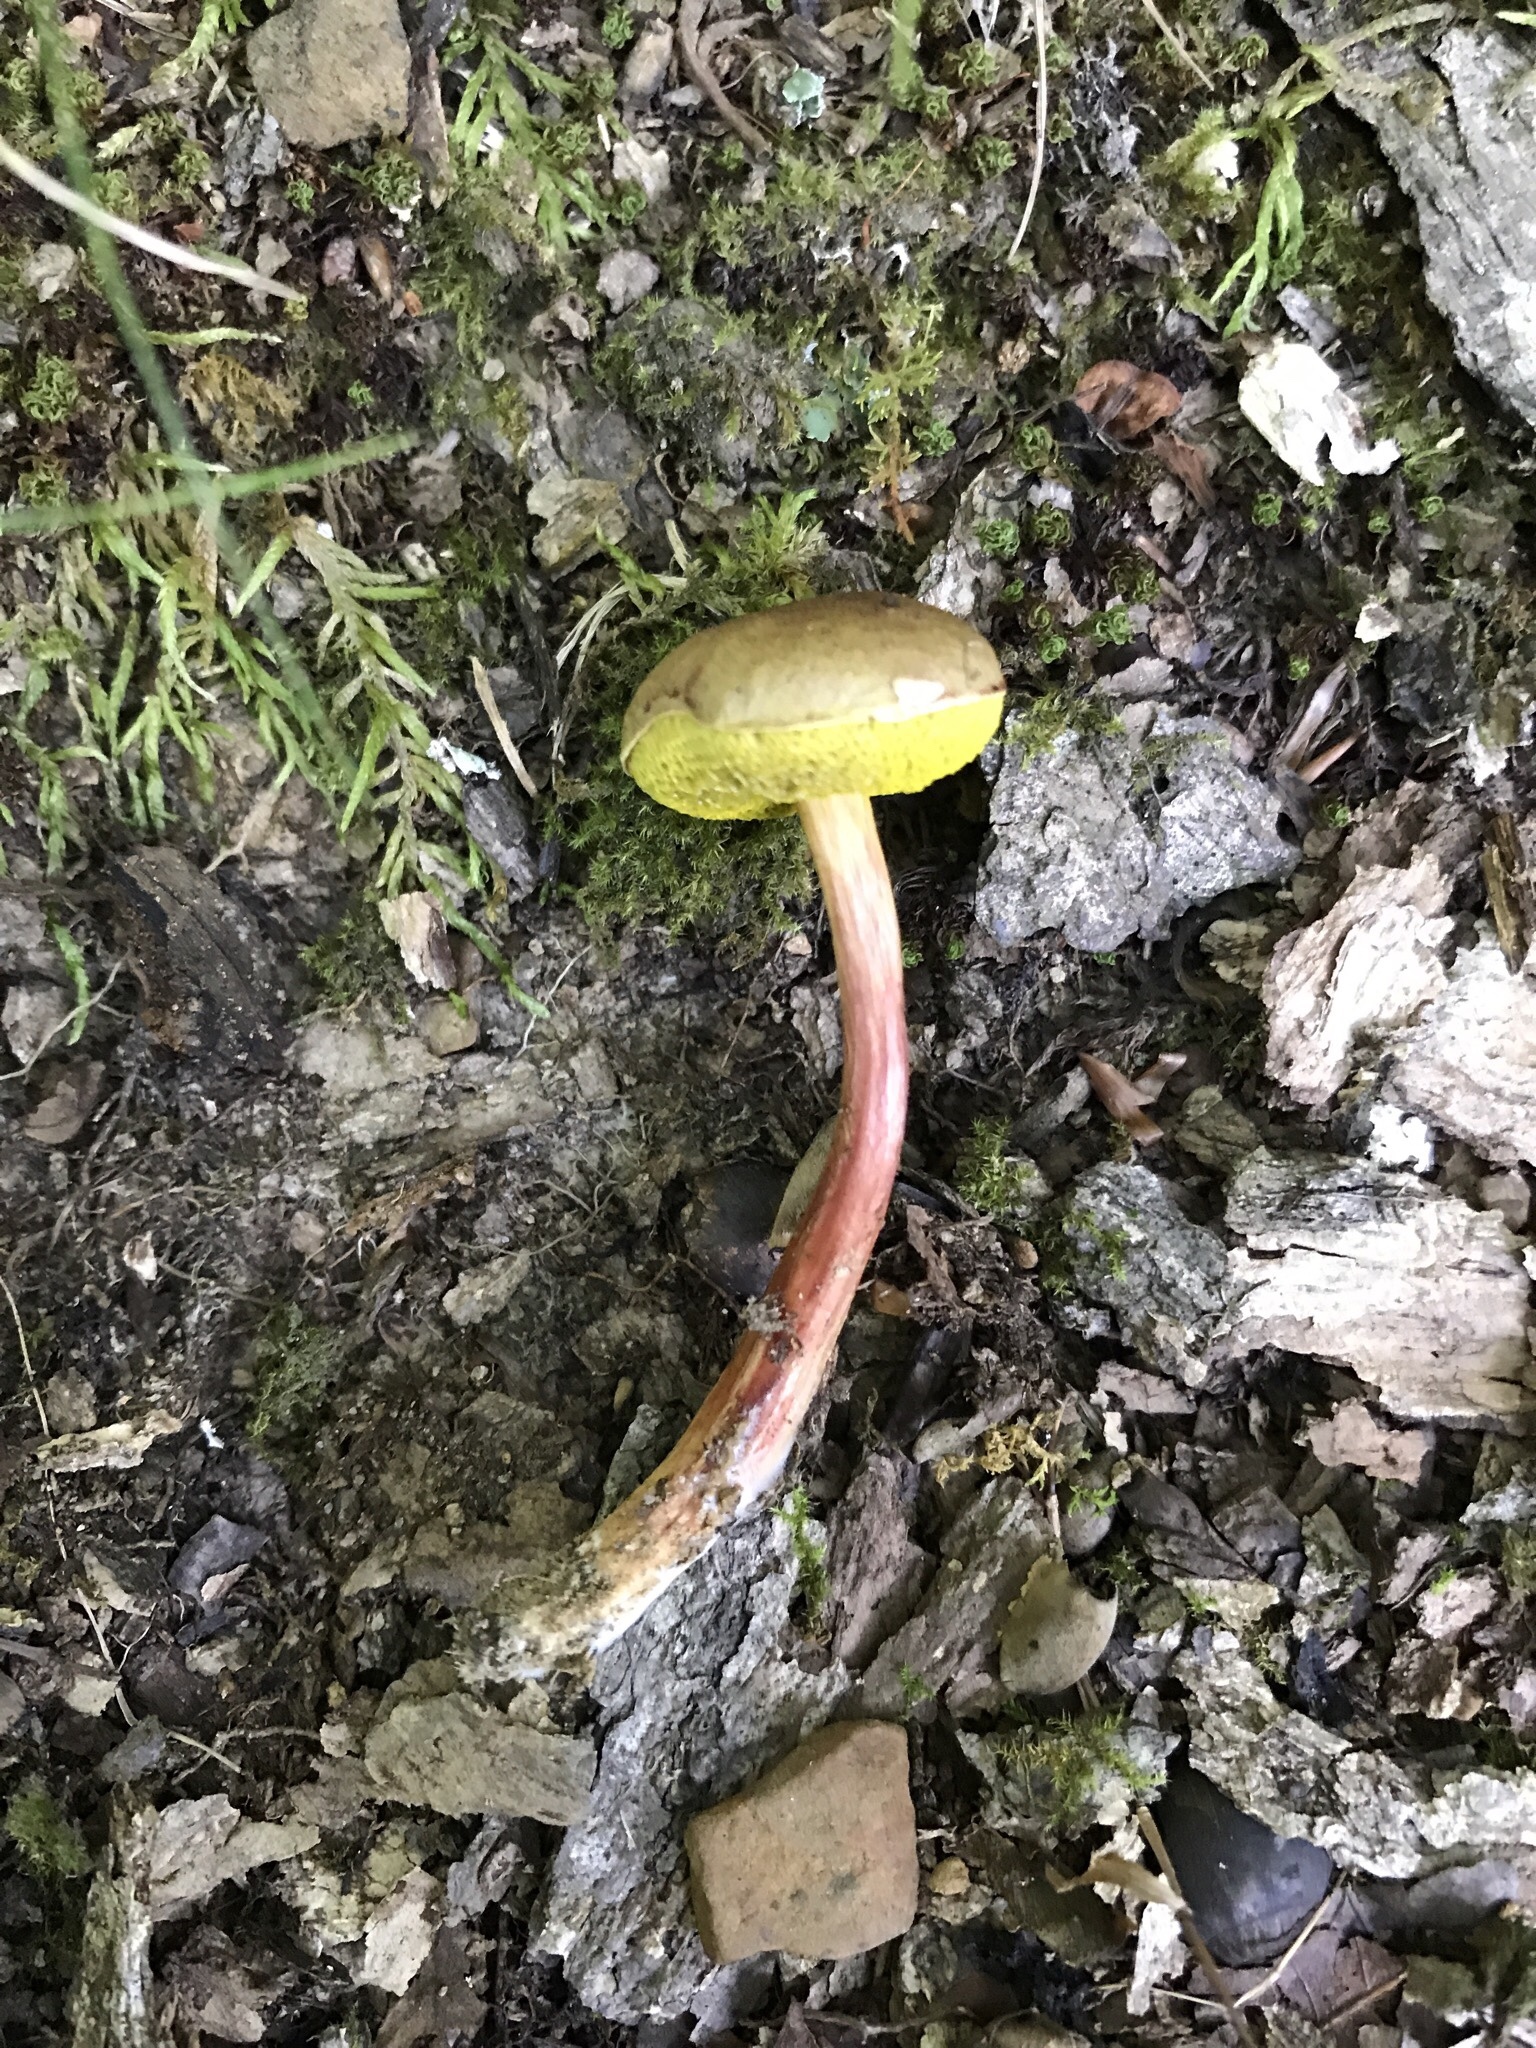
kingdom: Fungi
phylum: Basidiomycota
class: Agaricomycetes
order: Boletales
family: Boletaceae
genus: Aureoboletus
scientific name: Aureoboletus auriporus
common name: Sour gold-pored bolete
